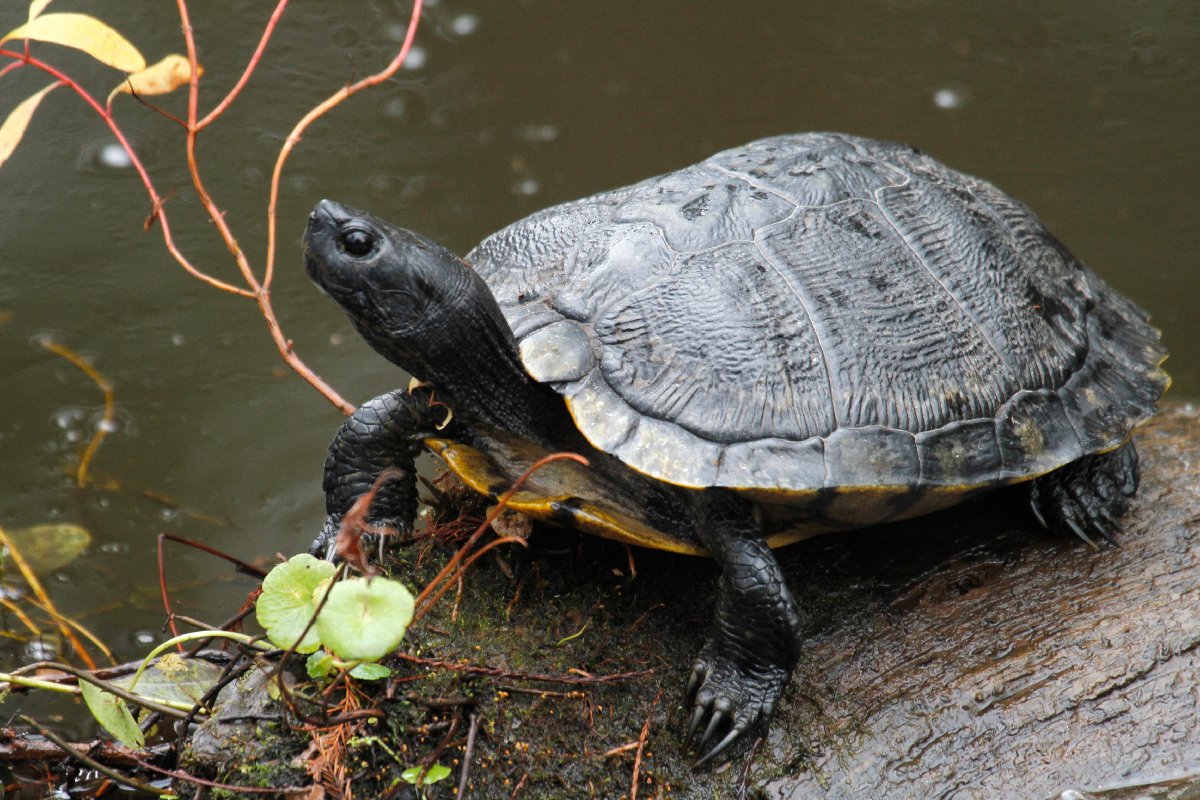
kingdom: Animalia
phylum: Chordata
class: Testudines
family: Emydidae
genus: Trachemys
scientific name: Trachemys scripta
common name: Slider
